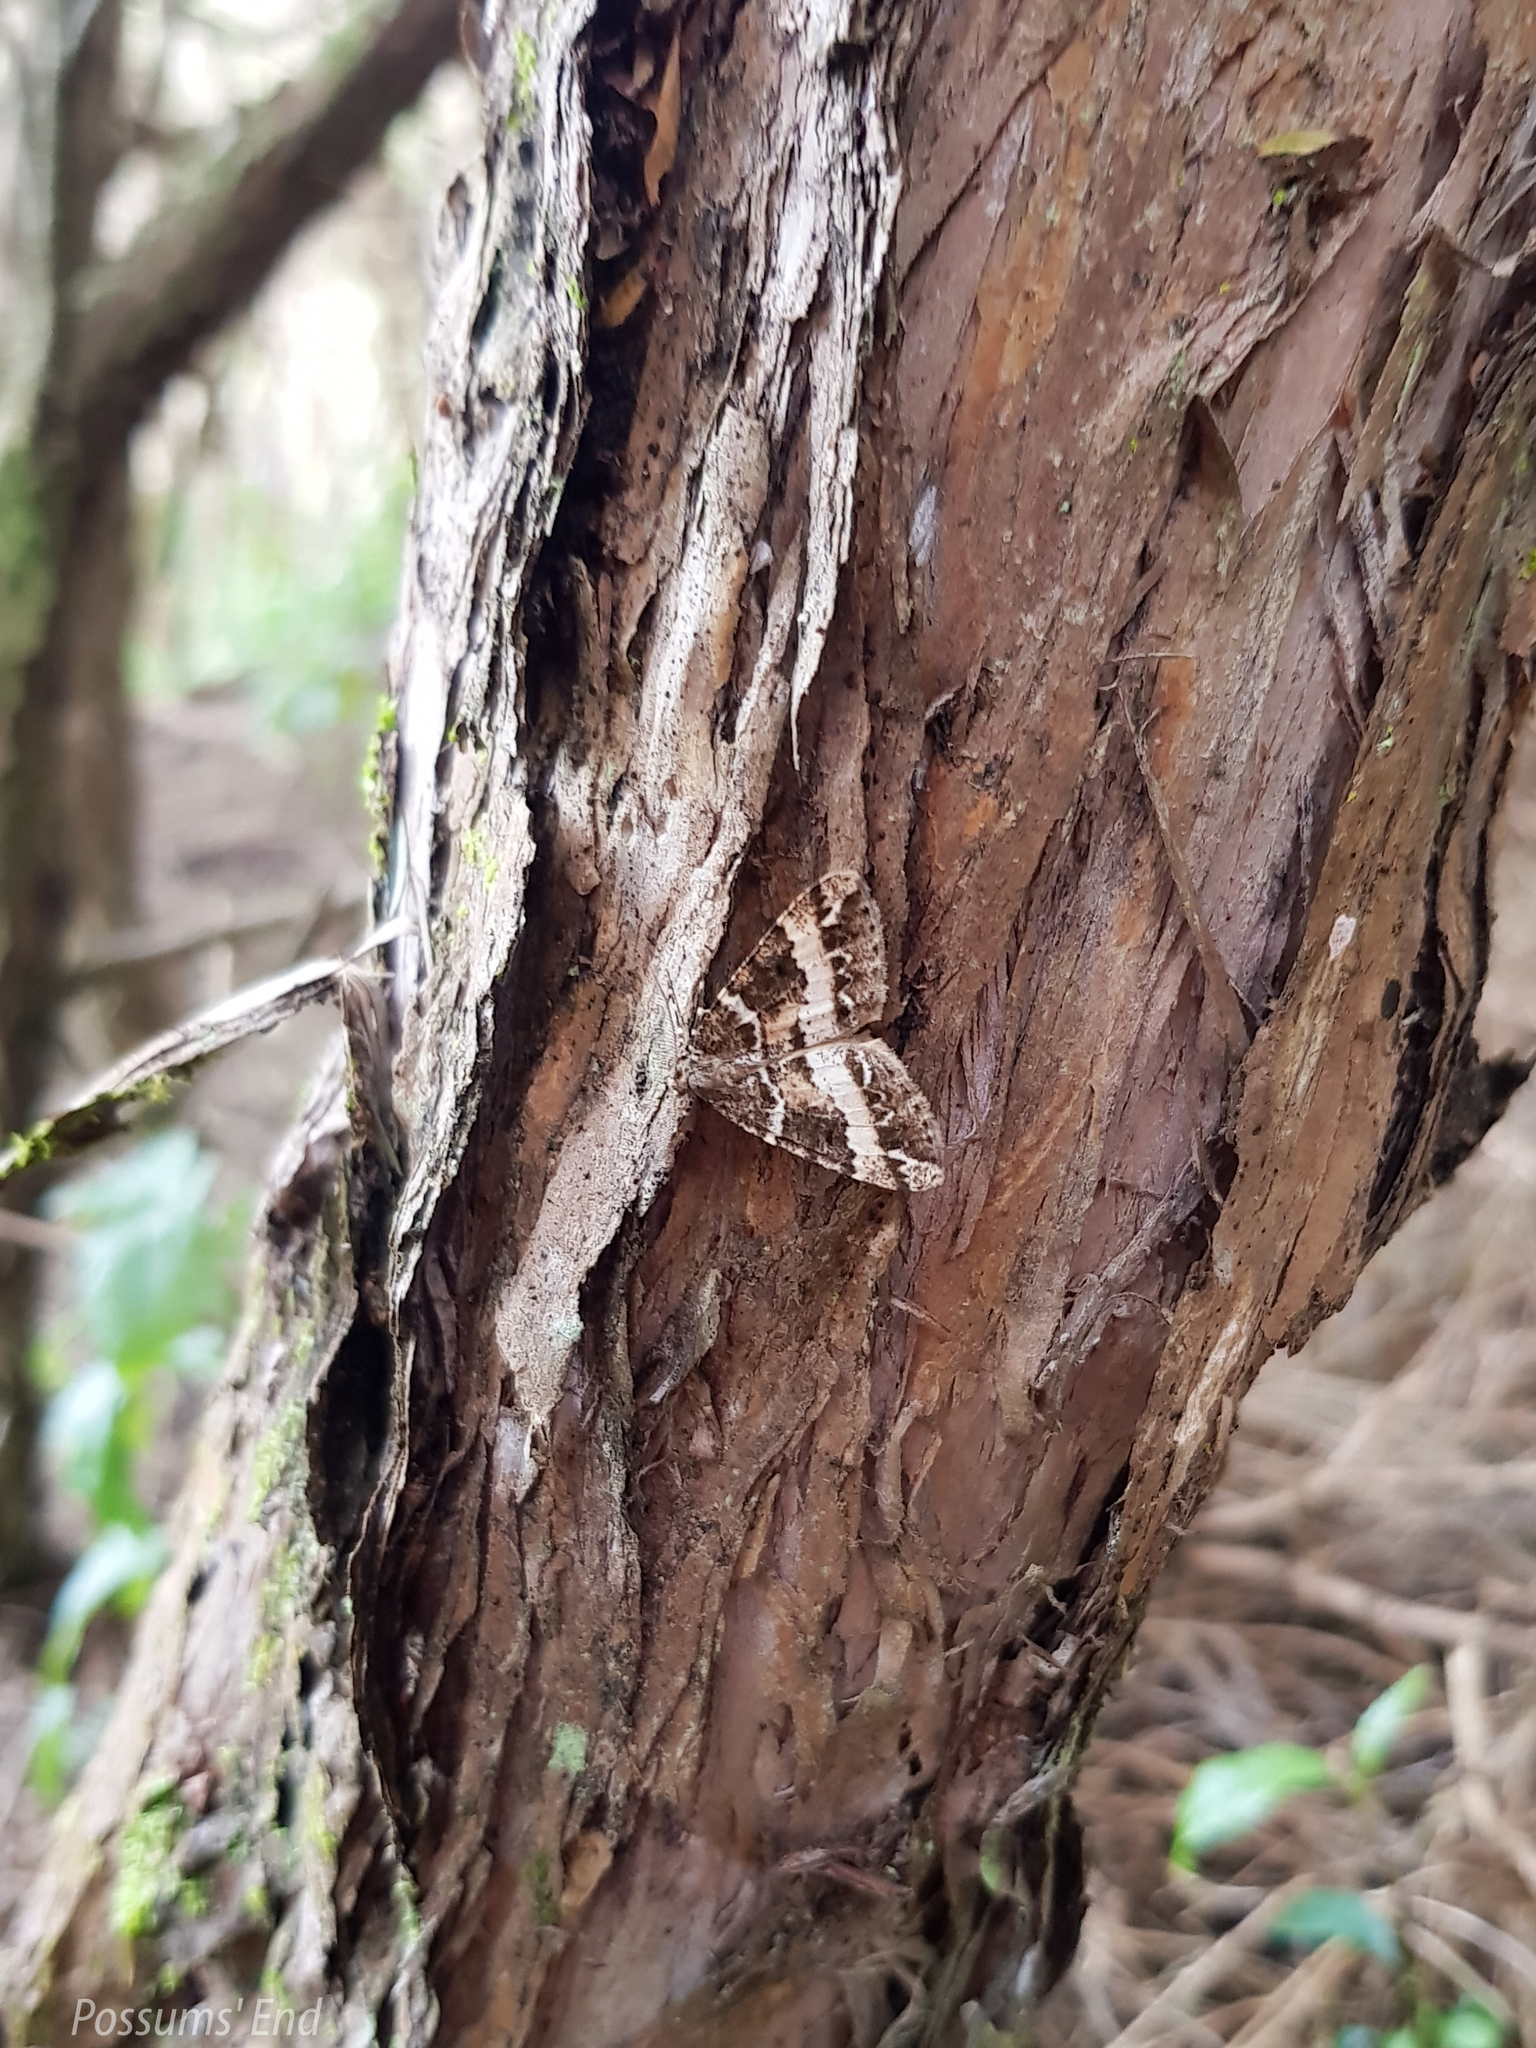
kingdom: Animalia
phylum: Arthropoda
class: Insecta
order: Lepidoptera
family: Geometridae
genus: Pseudocoremia
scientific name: Pseudocoremia
